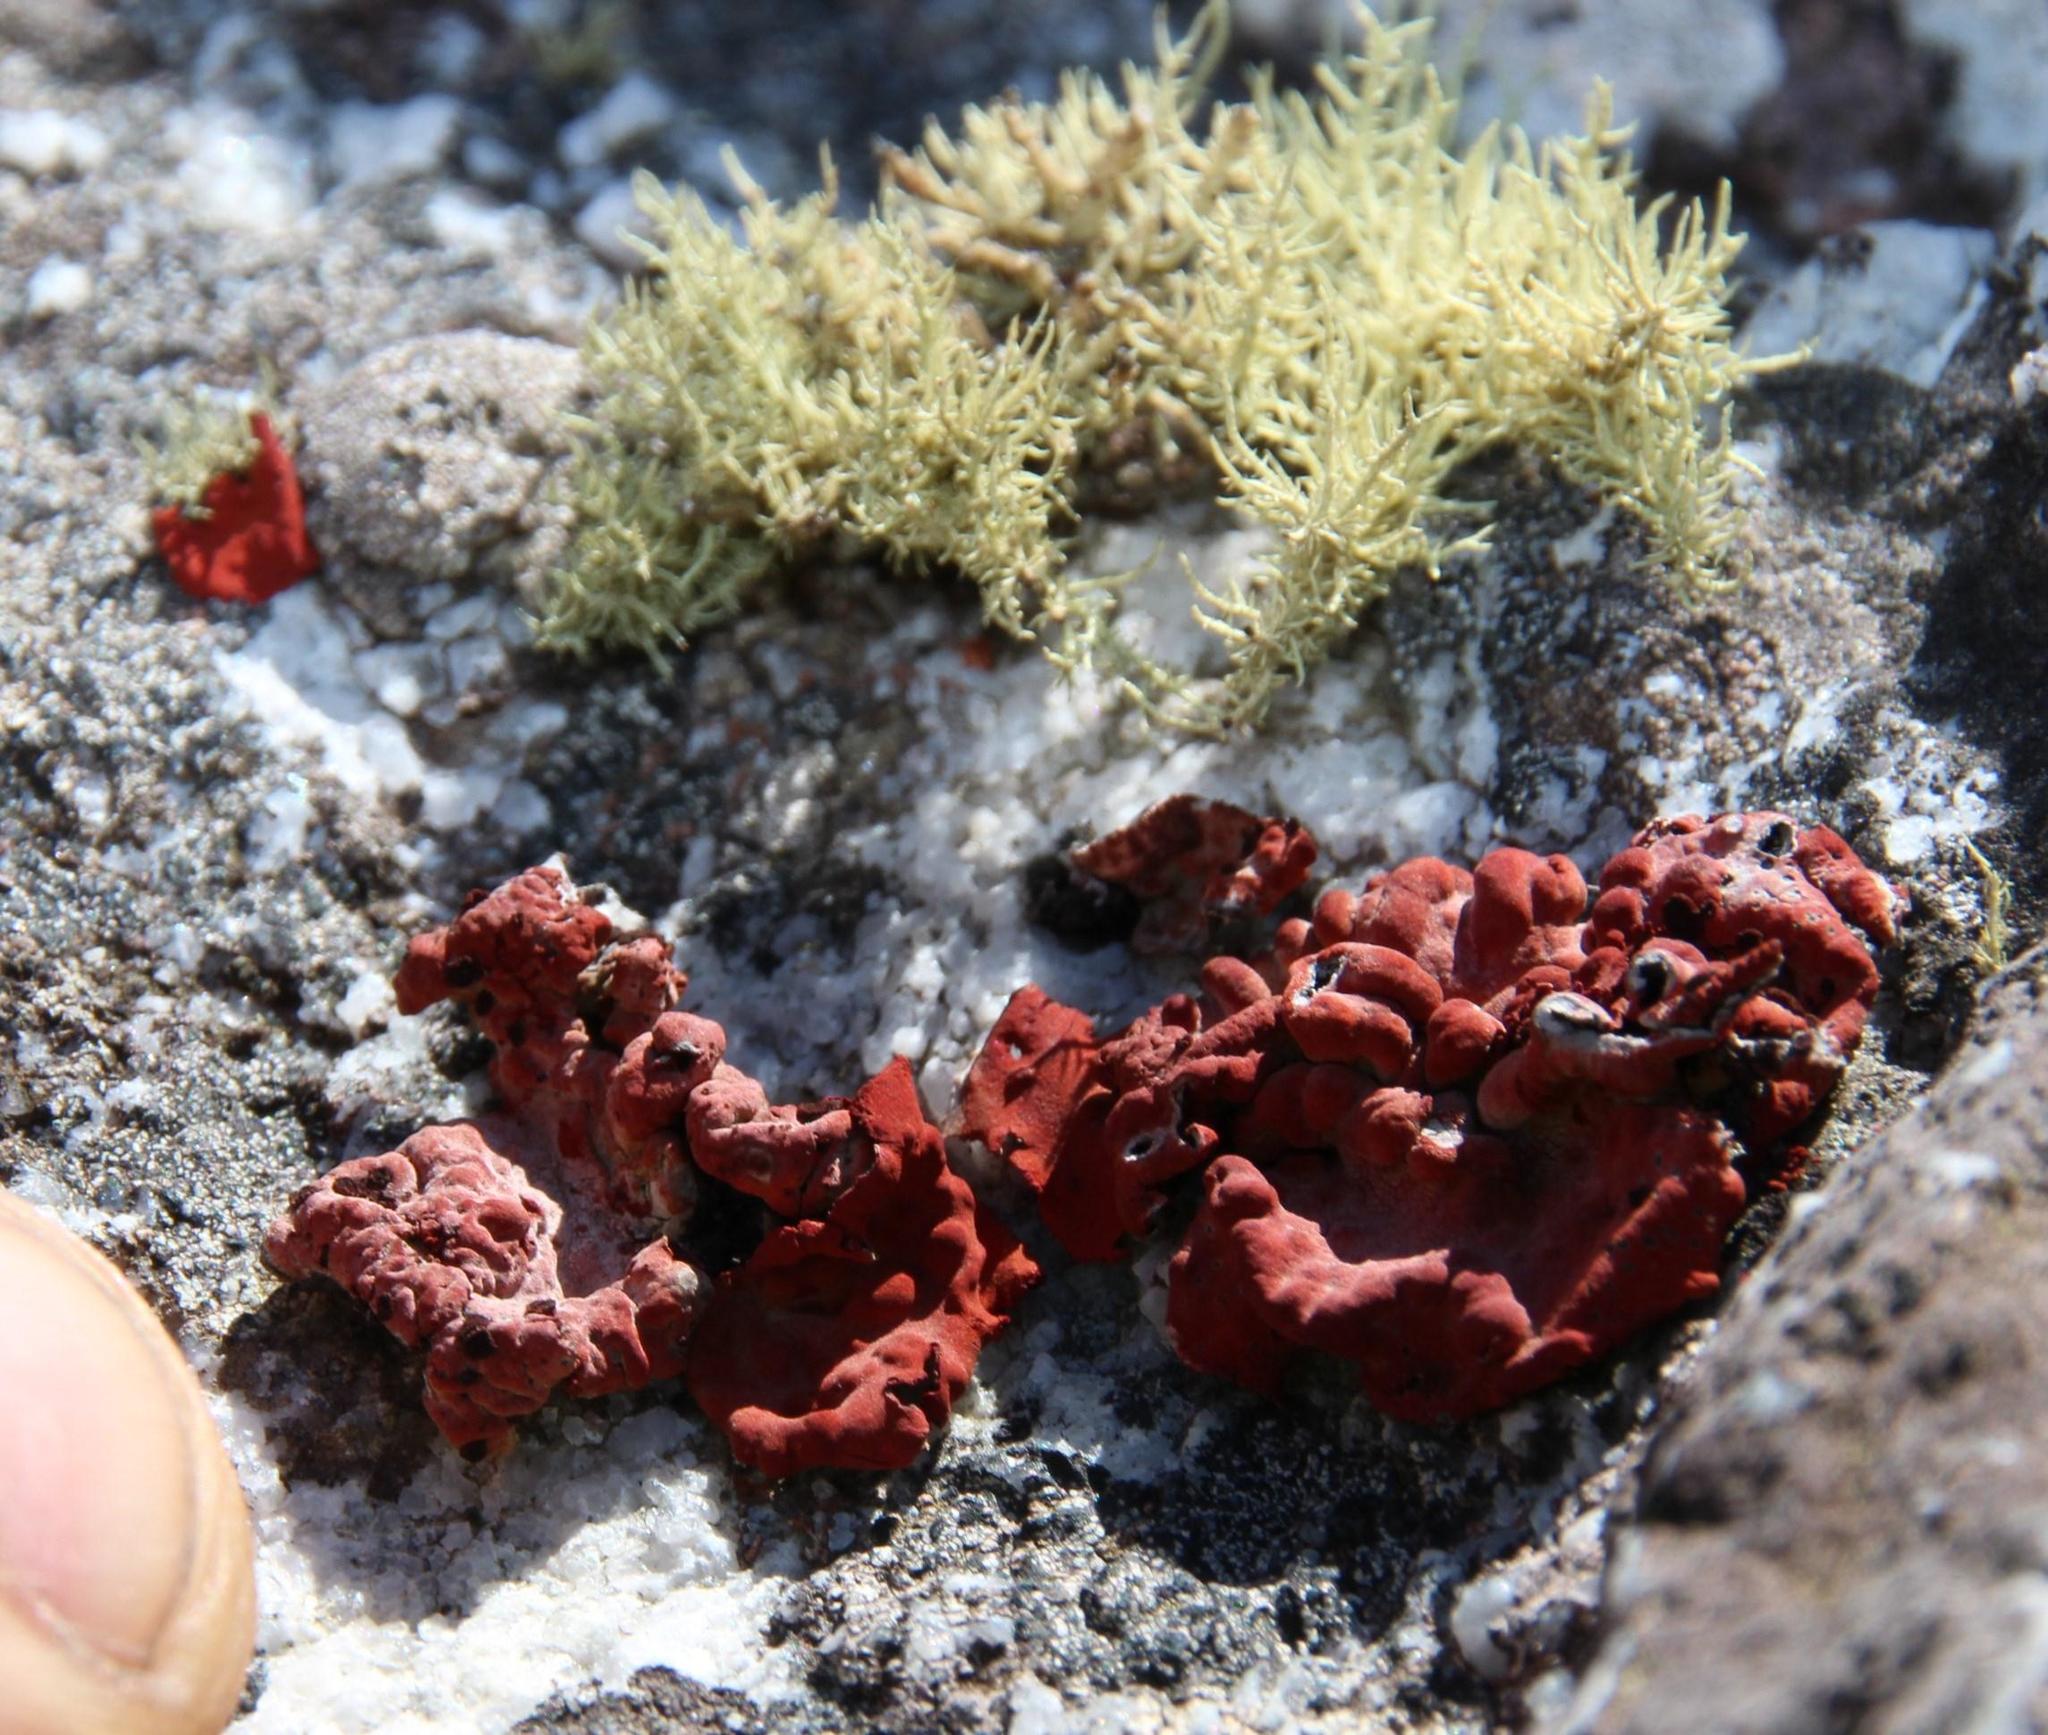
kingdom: Fungi
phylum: Ascomycota
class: Lecanoromycetes
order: Umbilicariales
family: Umbilicariaceae
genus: Lasallia
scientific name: Lasallia rubiginosa
